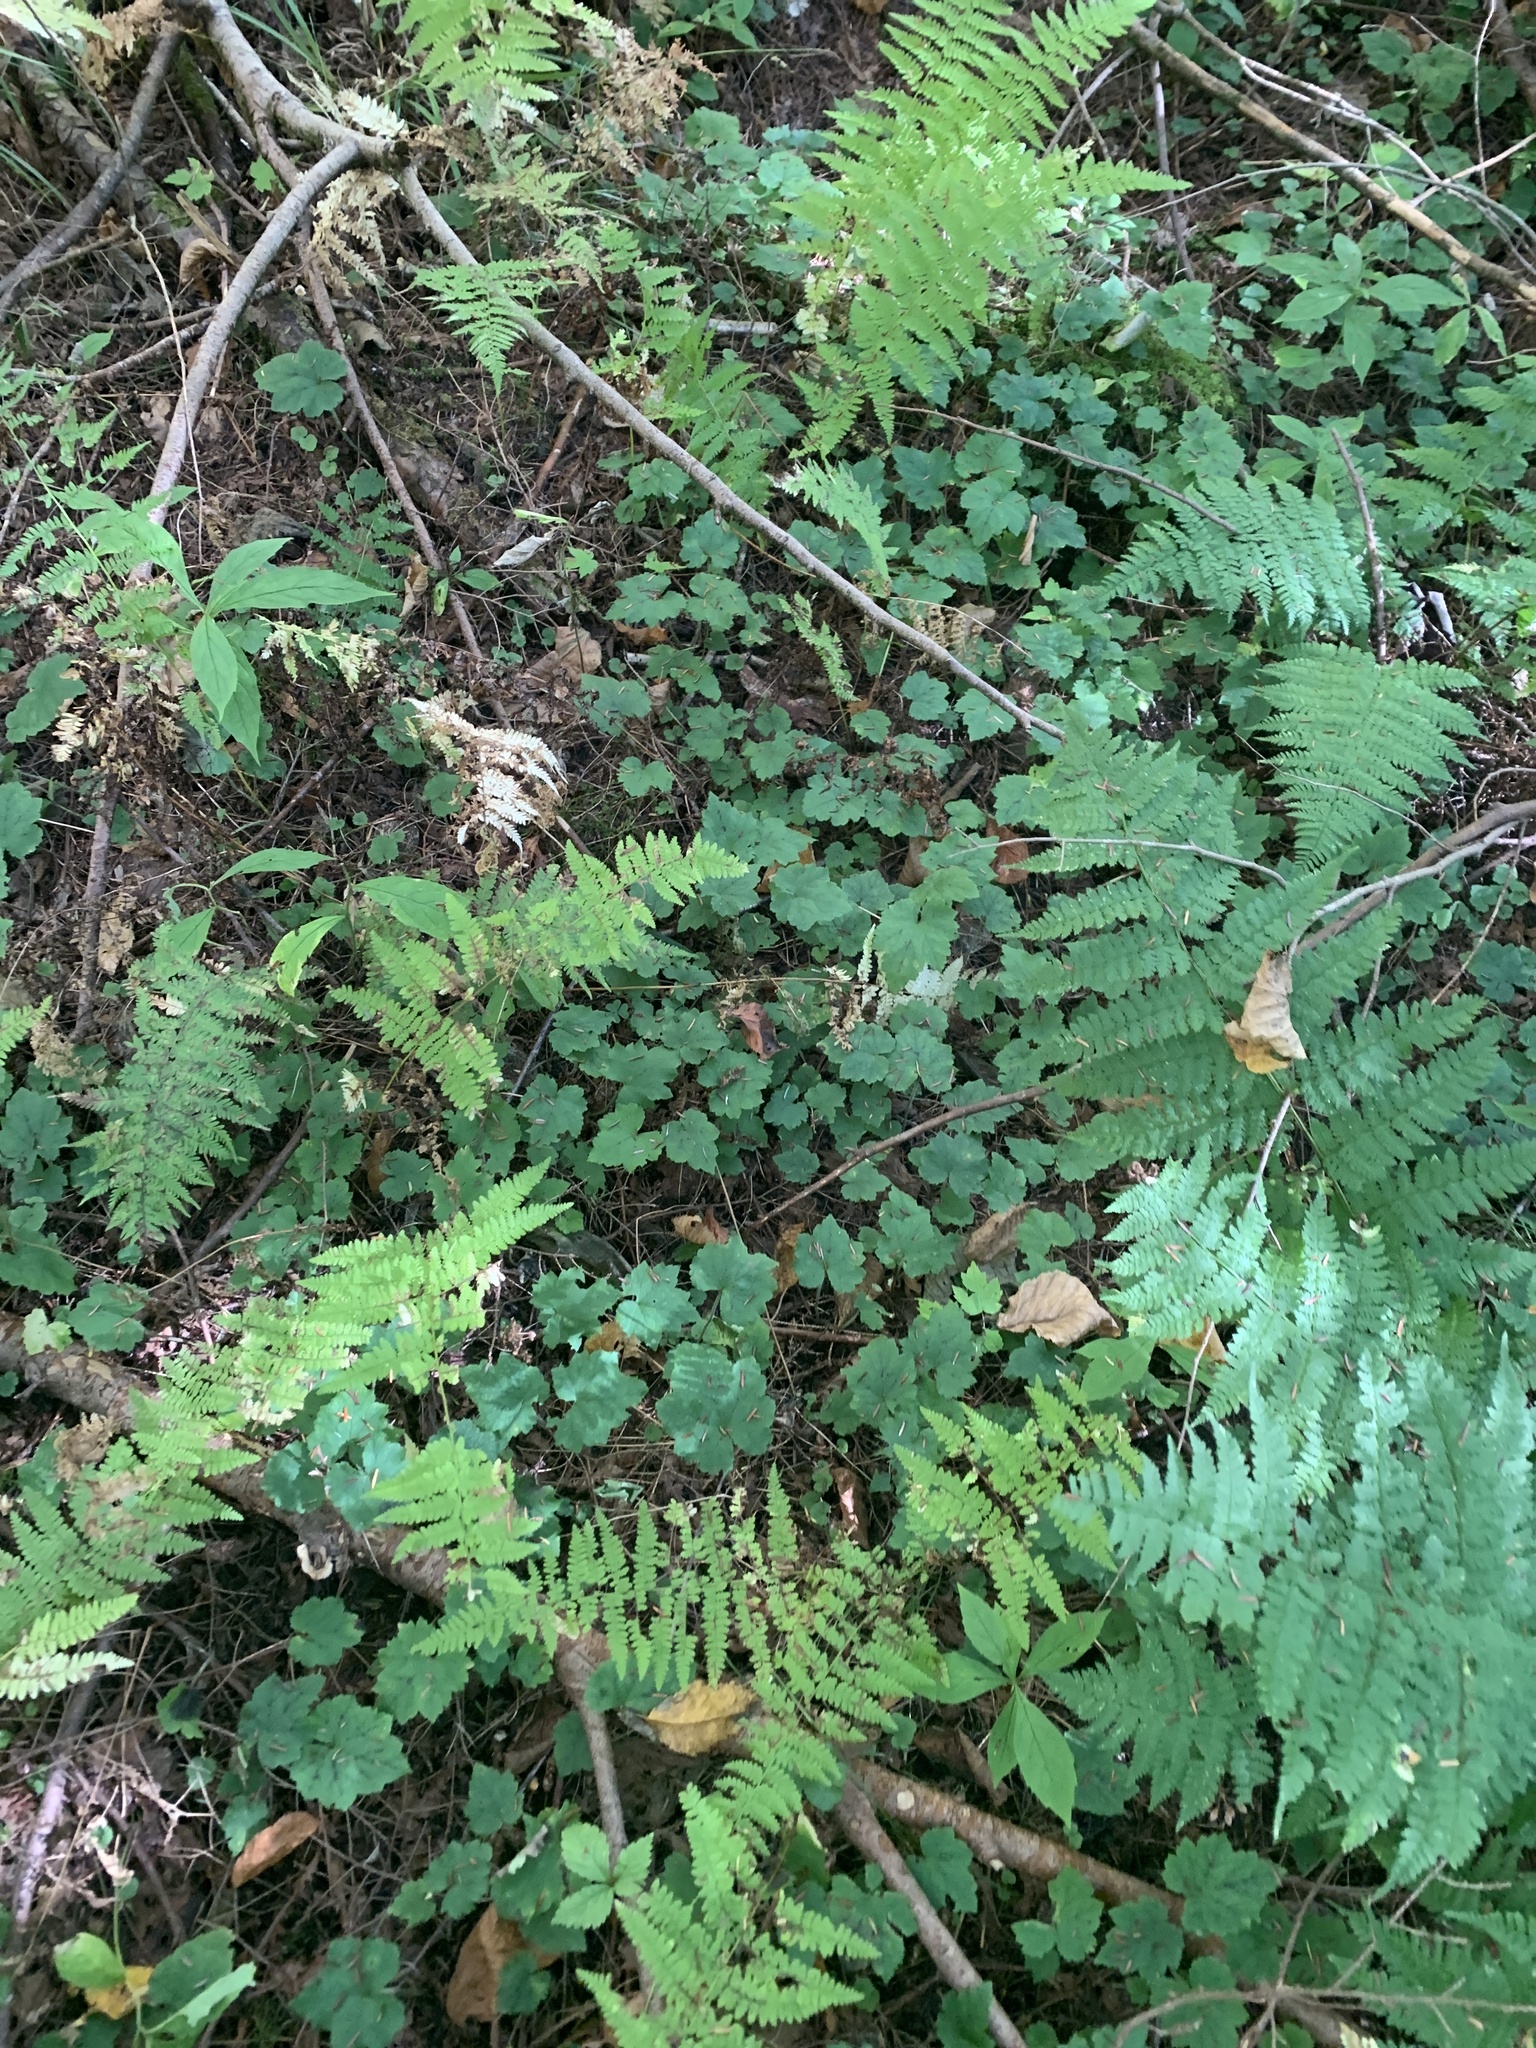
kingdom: Plantae
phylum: Tracheophyta
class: Magnoliopsida
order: Saxifragales
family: Saxifragaceae
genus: Tiarella
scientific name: Tiarella stolonifera
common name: Stoloniferous foamflower
